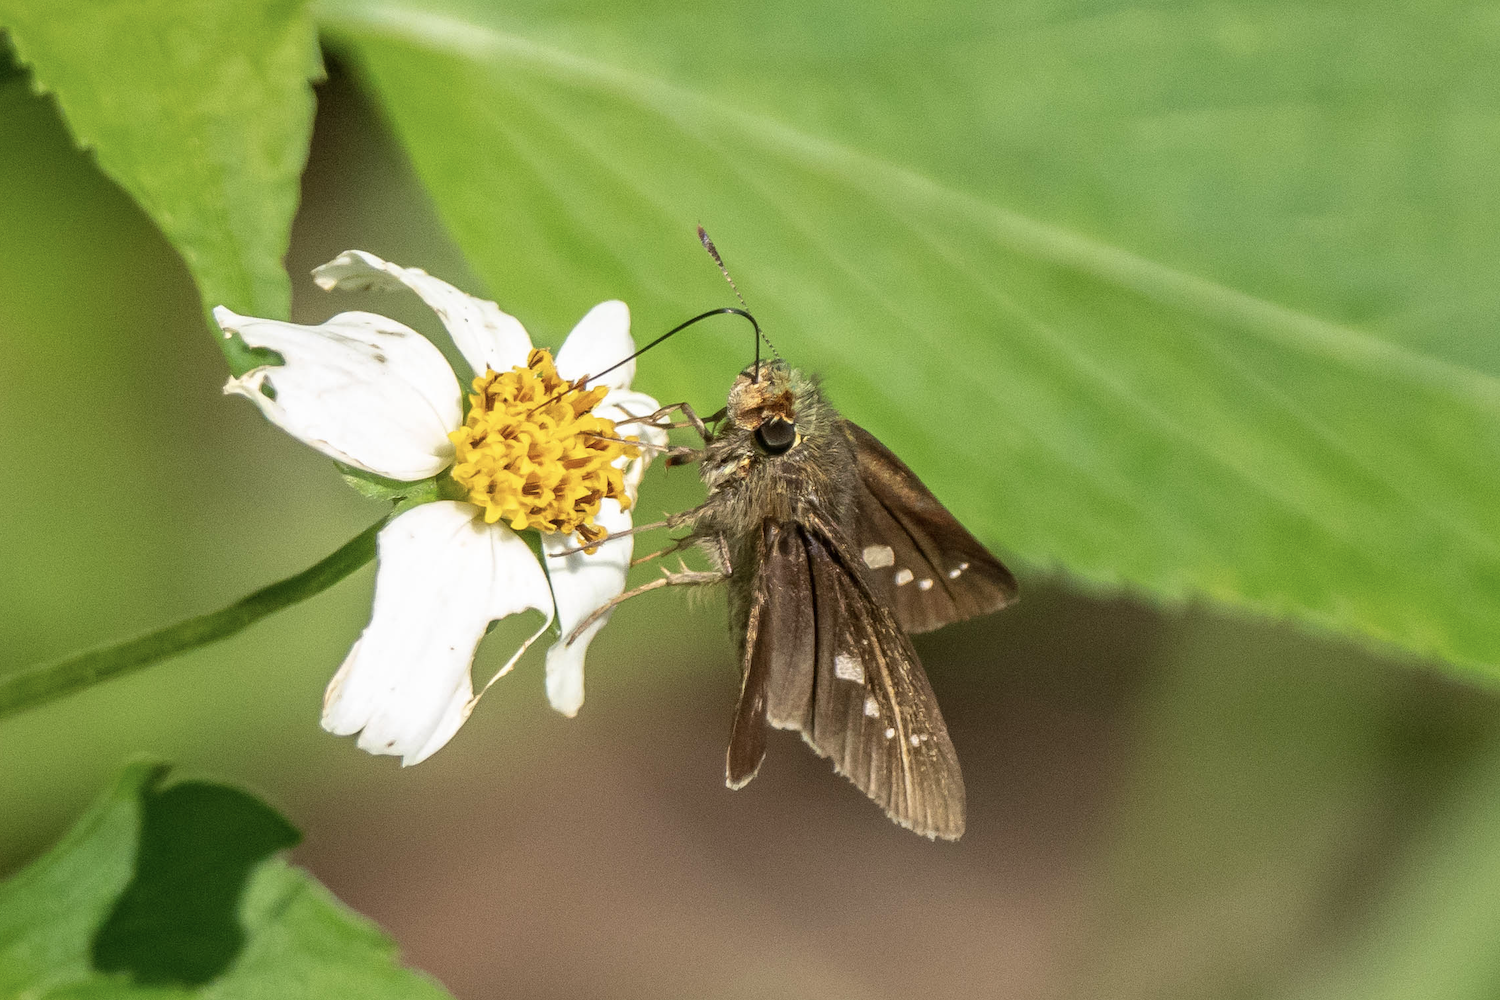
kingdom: Animalia
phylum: Arthropoda
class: Insecta
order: Lepidoptera
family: Hesperiidae
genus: Parnara
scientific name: Parnara ganga
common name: Continental swift
